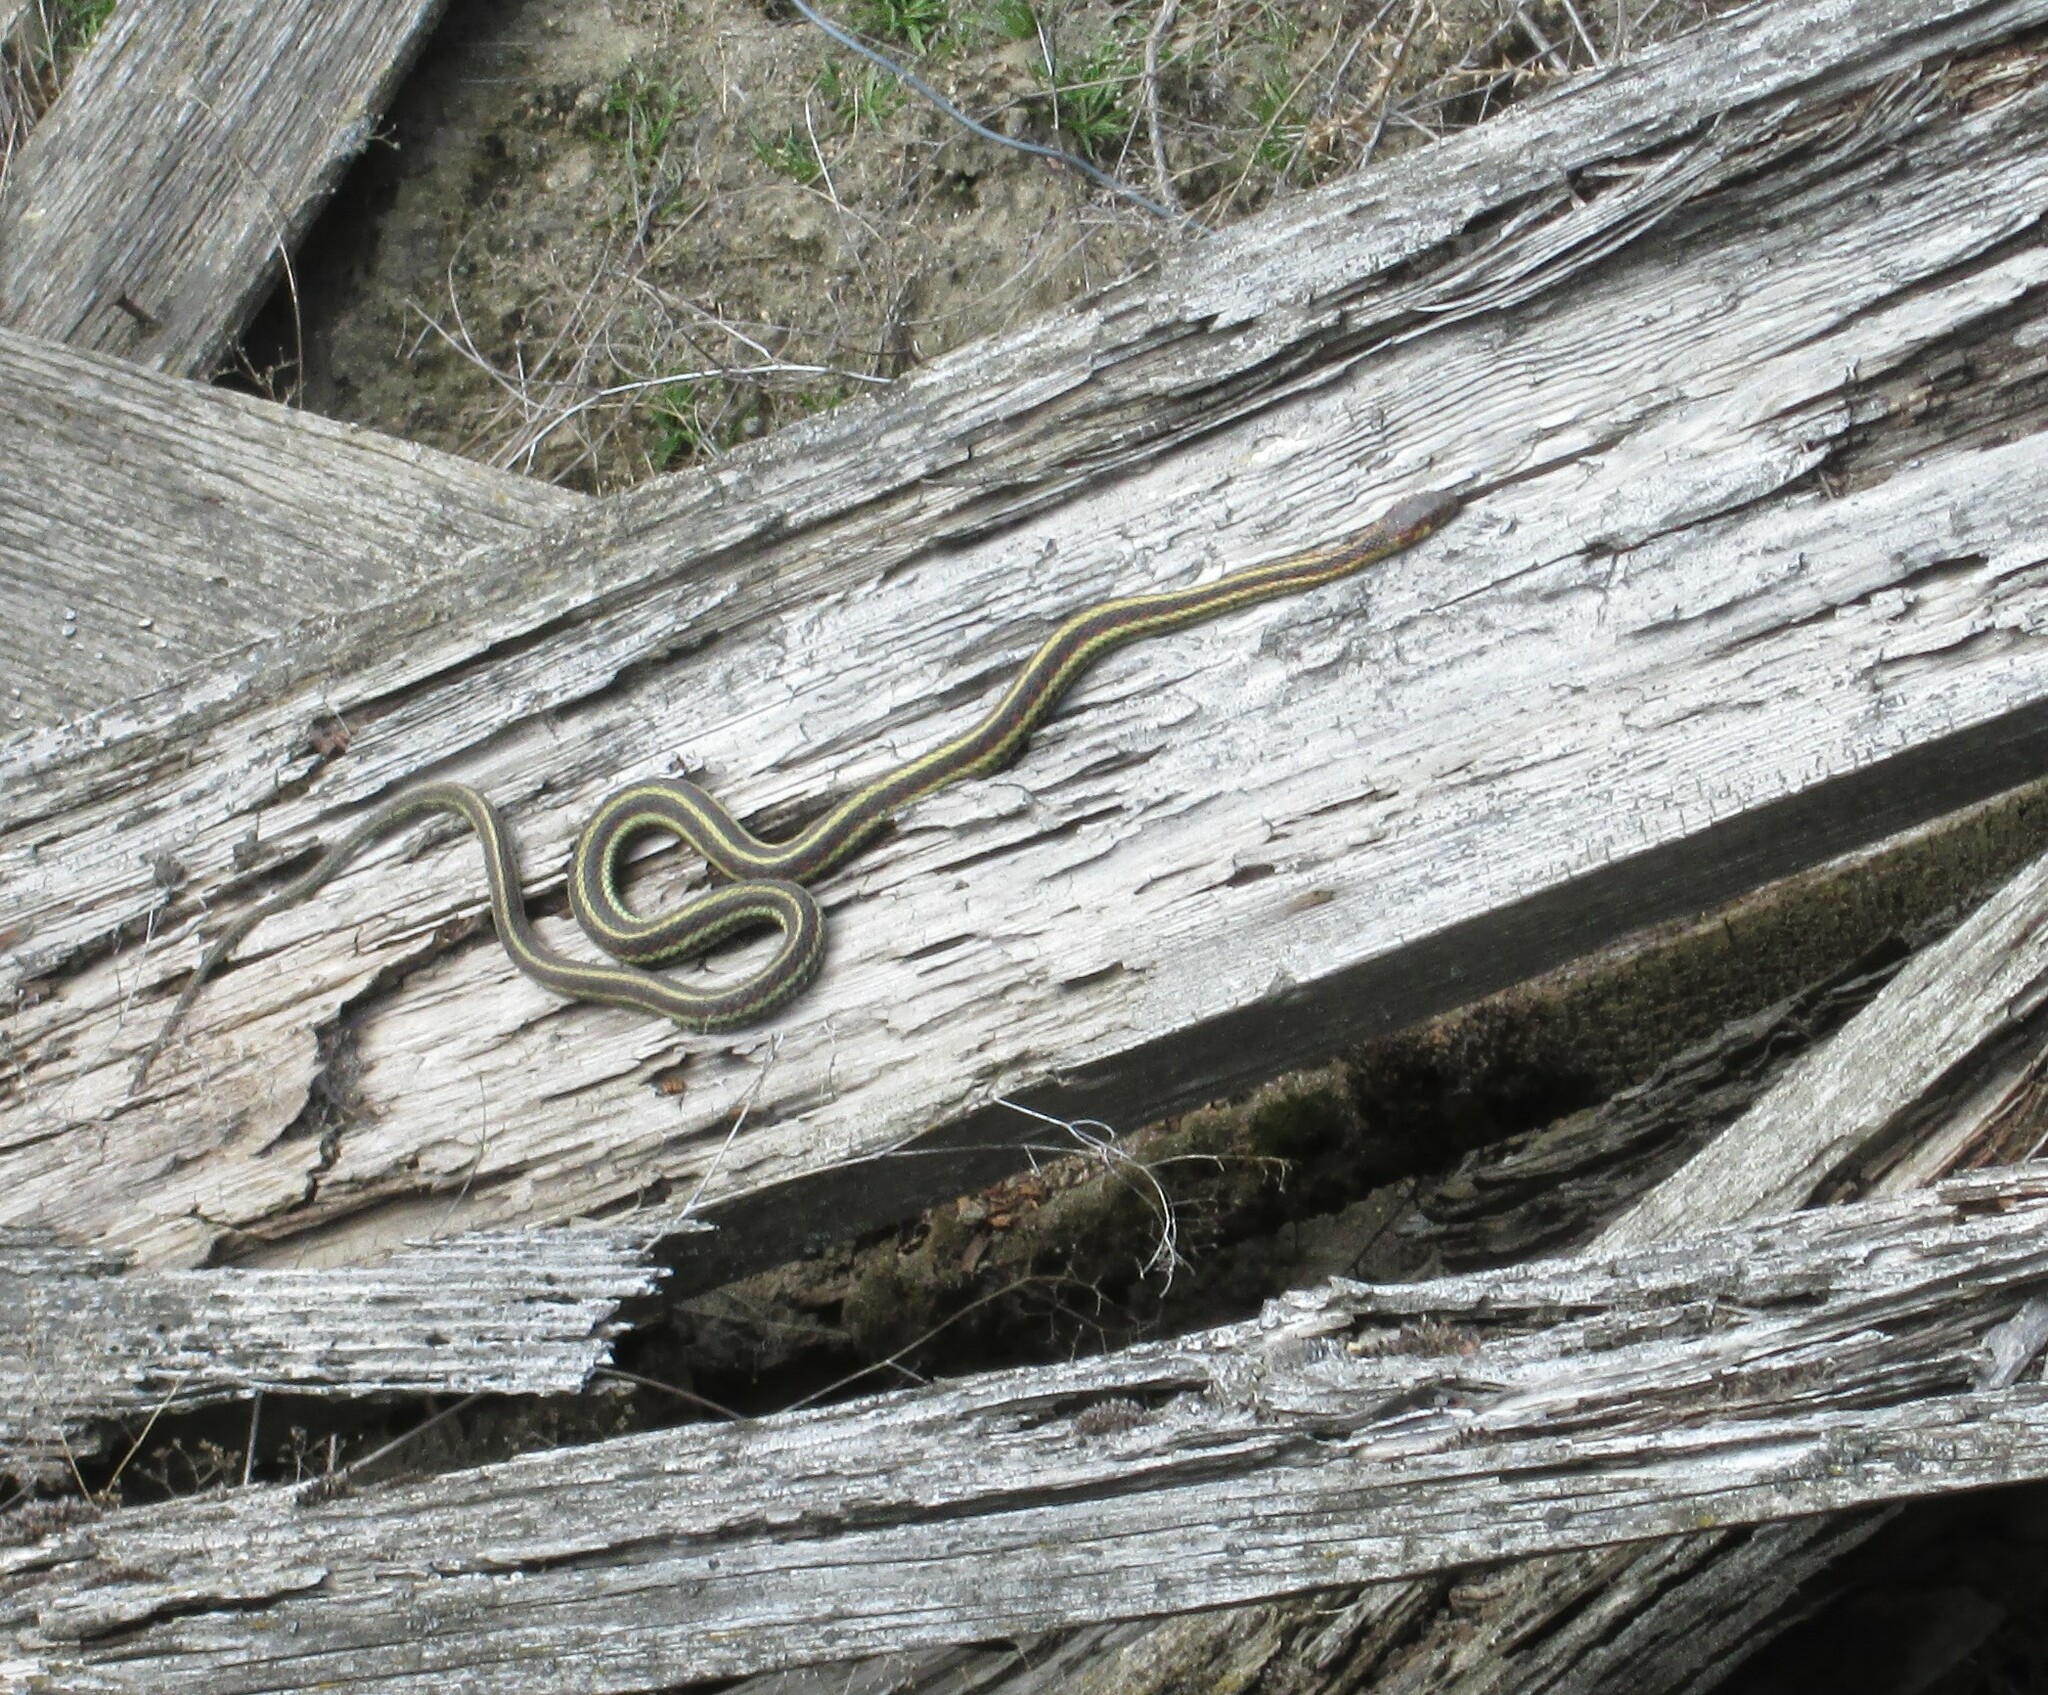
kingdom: Animalia
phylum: Chordata
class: Squamata
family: Colubridae
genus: Thamnophis
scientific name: Thamnophis sirtalis
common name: Common garter snake
